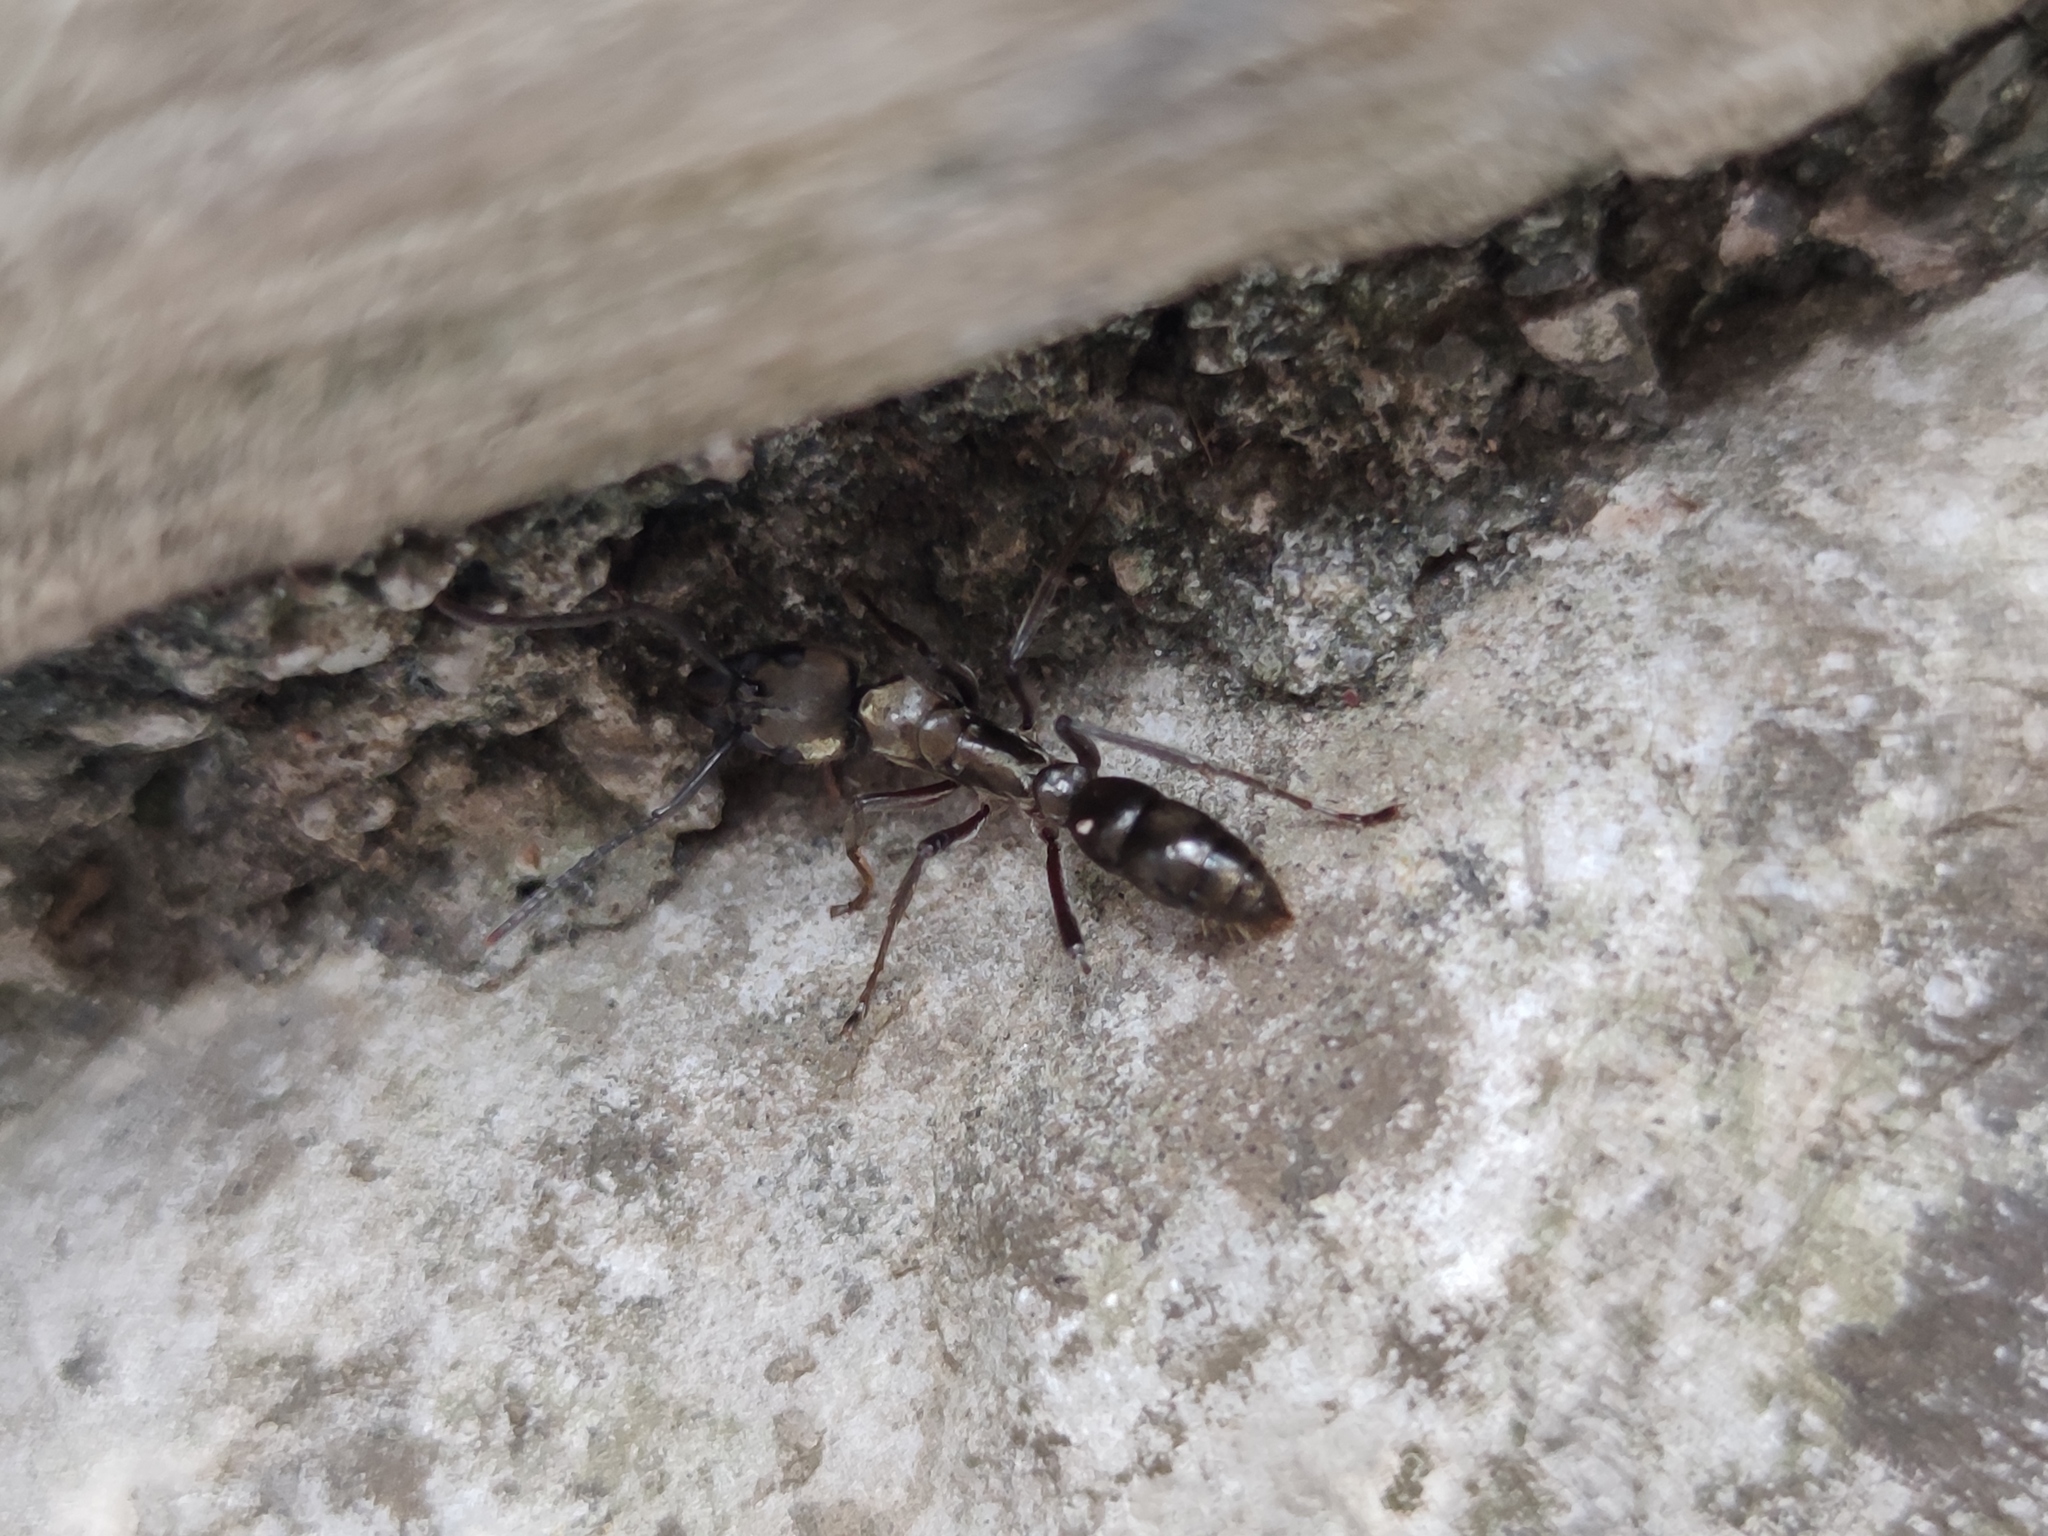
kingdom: Animalia
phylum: Arthropoda
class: Insecta
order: Hymenoptera
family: Formicidae
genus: Pachycondyla
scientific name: Pachycondyla villosa
